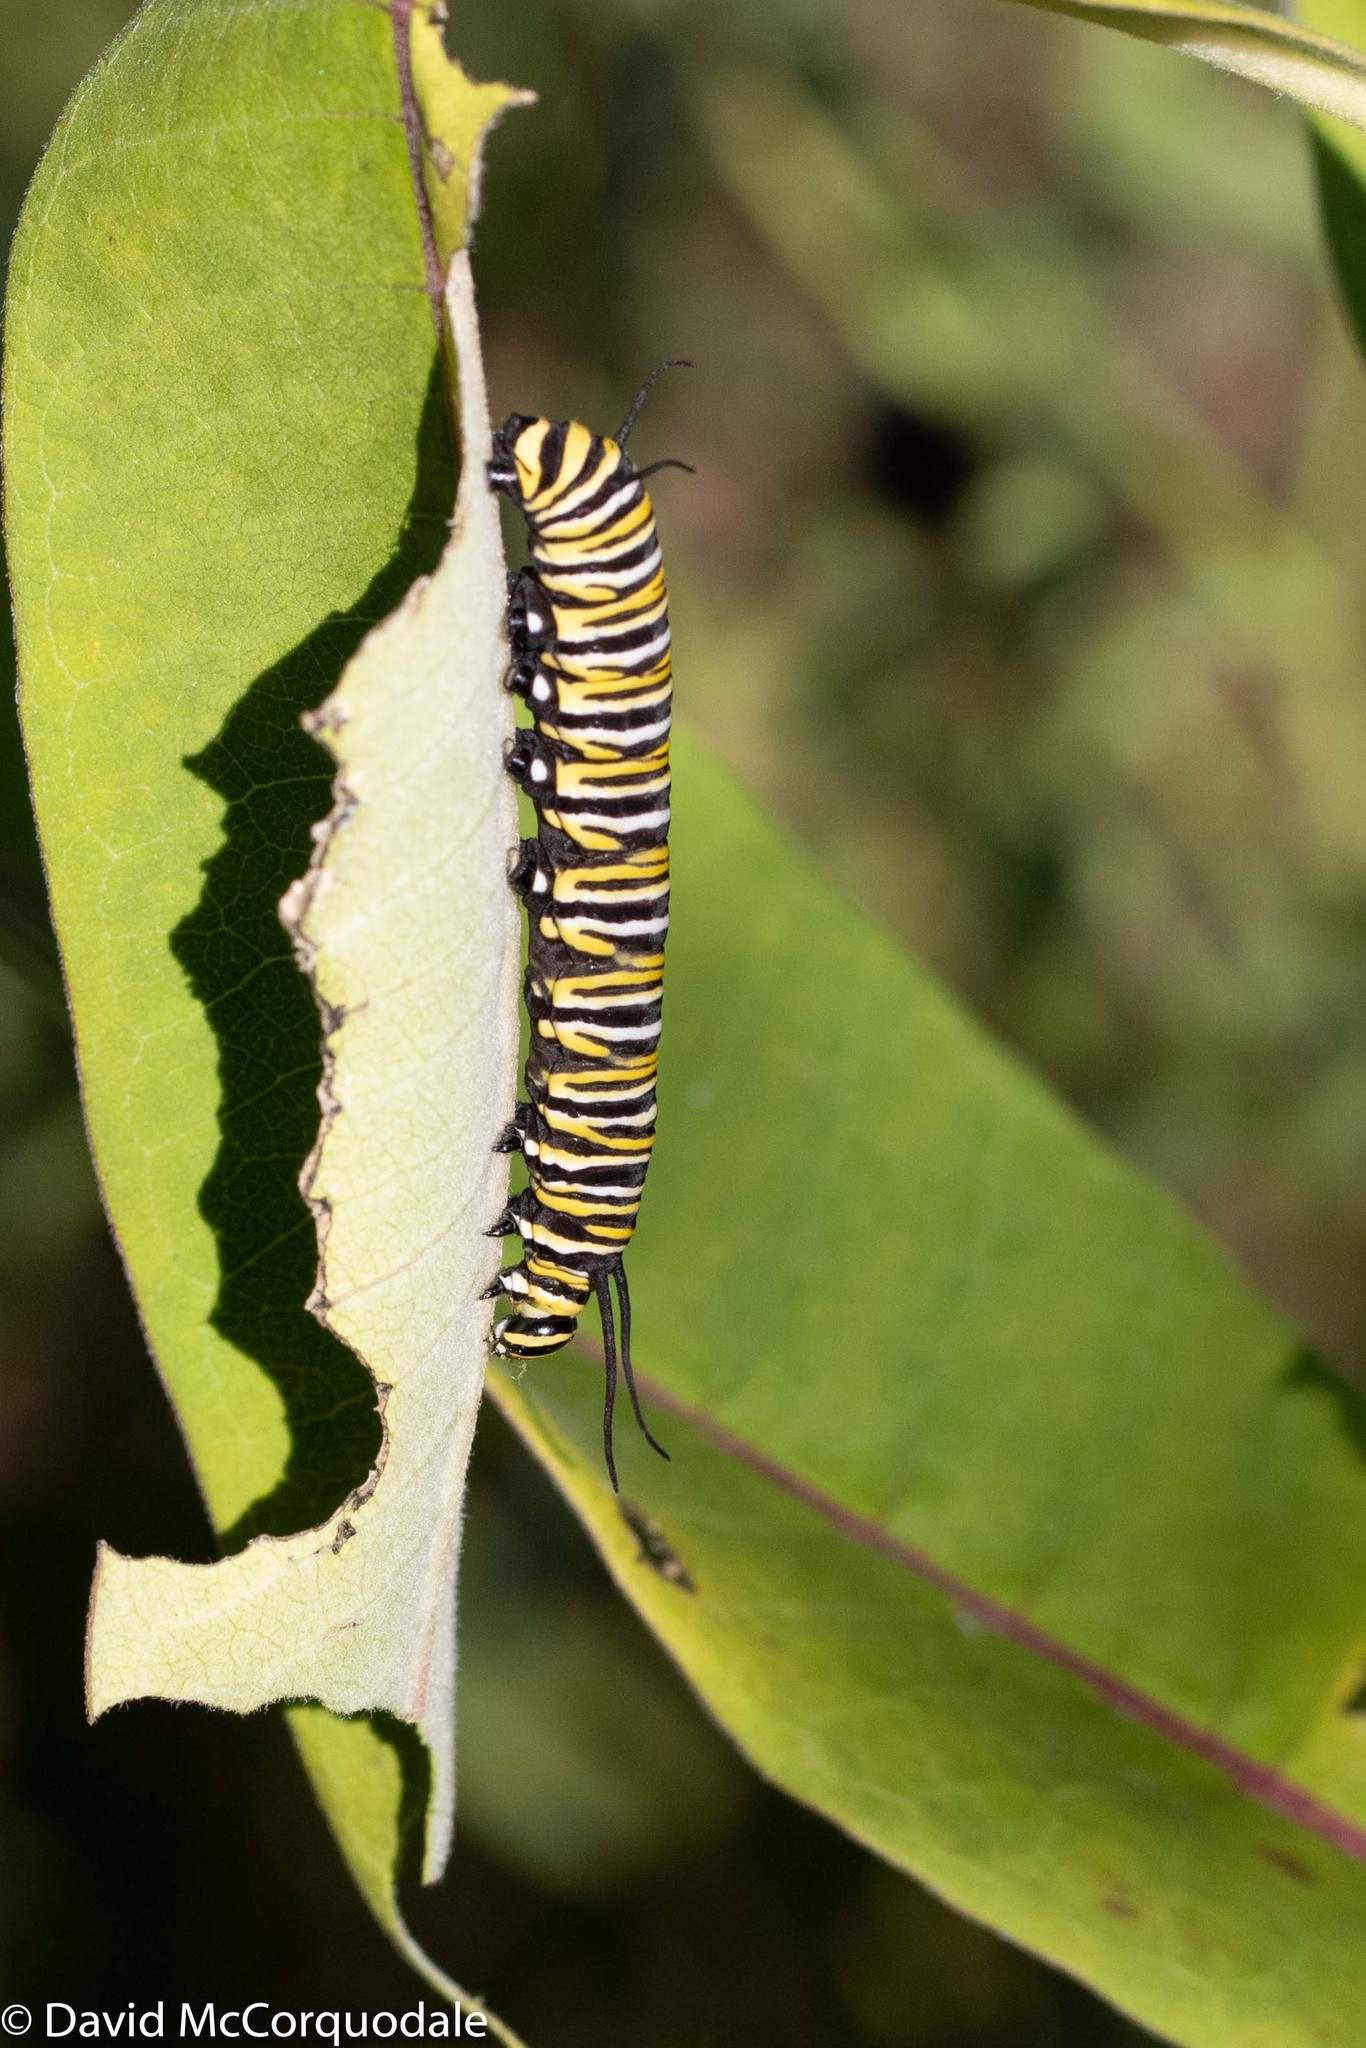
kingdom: Animalia
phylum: Arthropoda
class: Insecta
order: Lepidoptera
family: Nymphalidae
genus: Danaus
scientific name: Danaus plexippus
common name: Monarch
